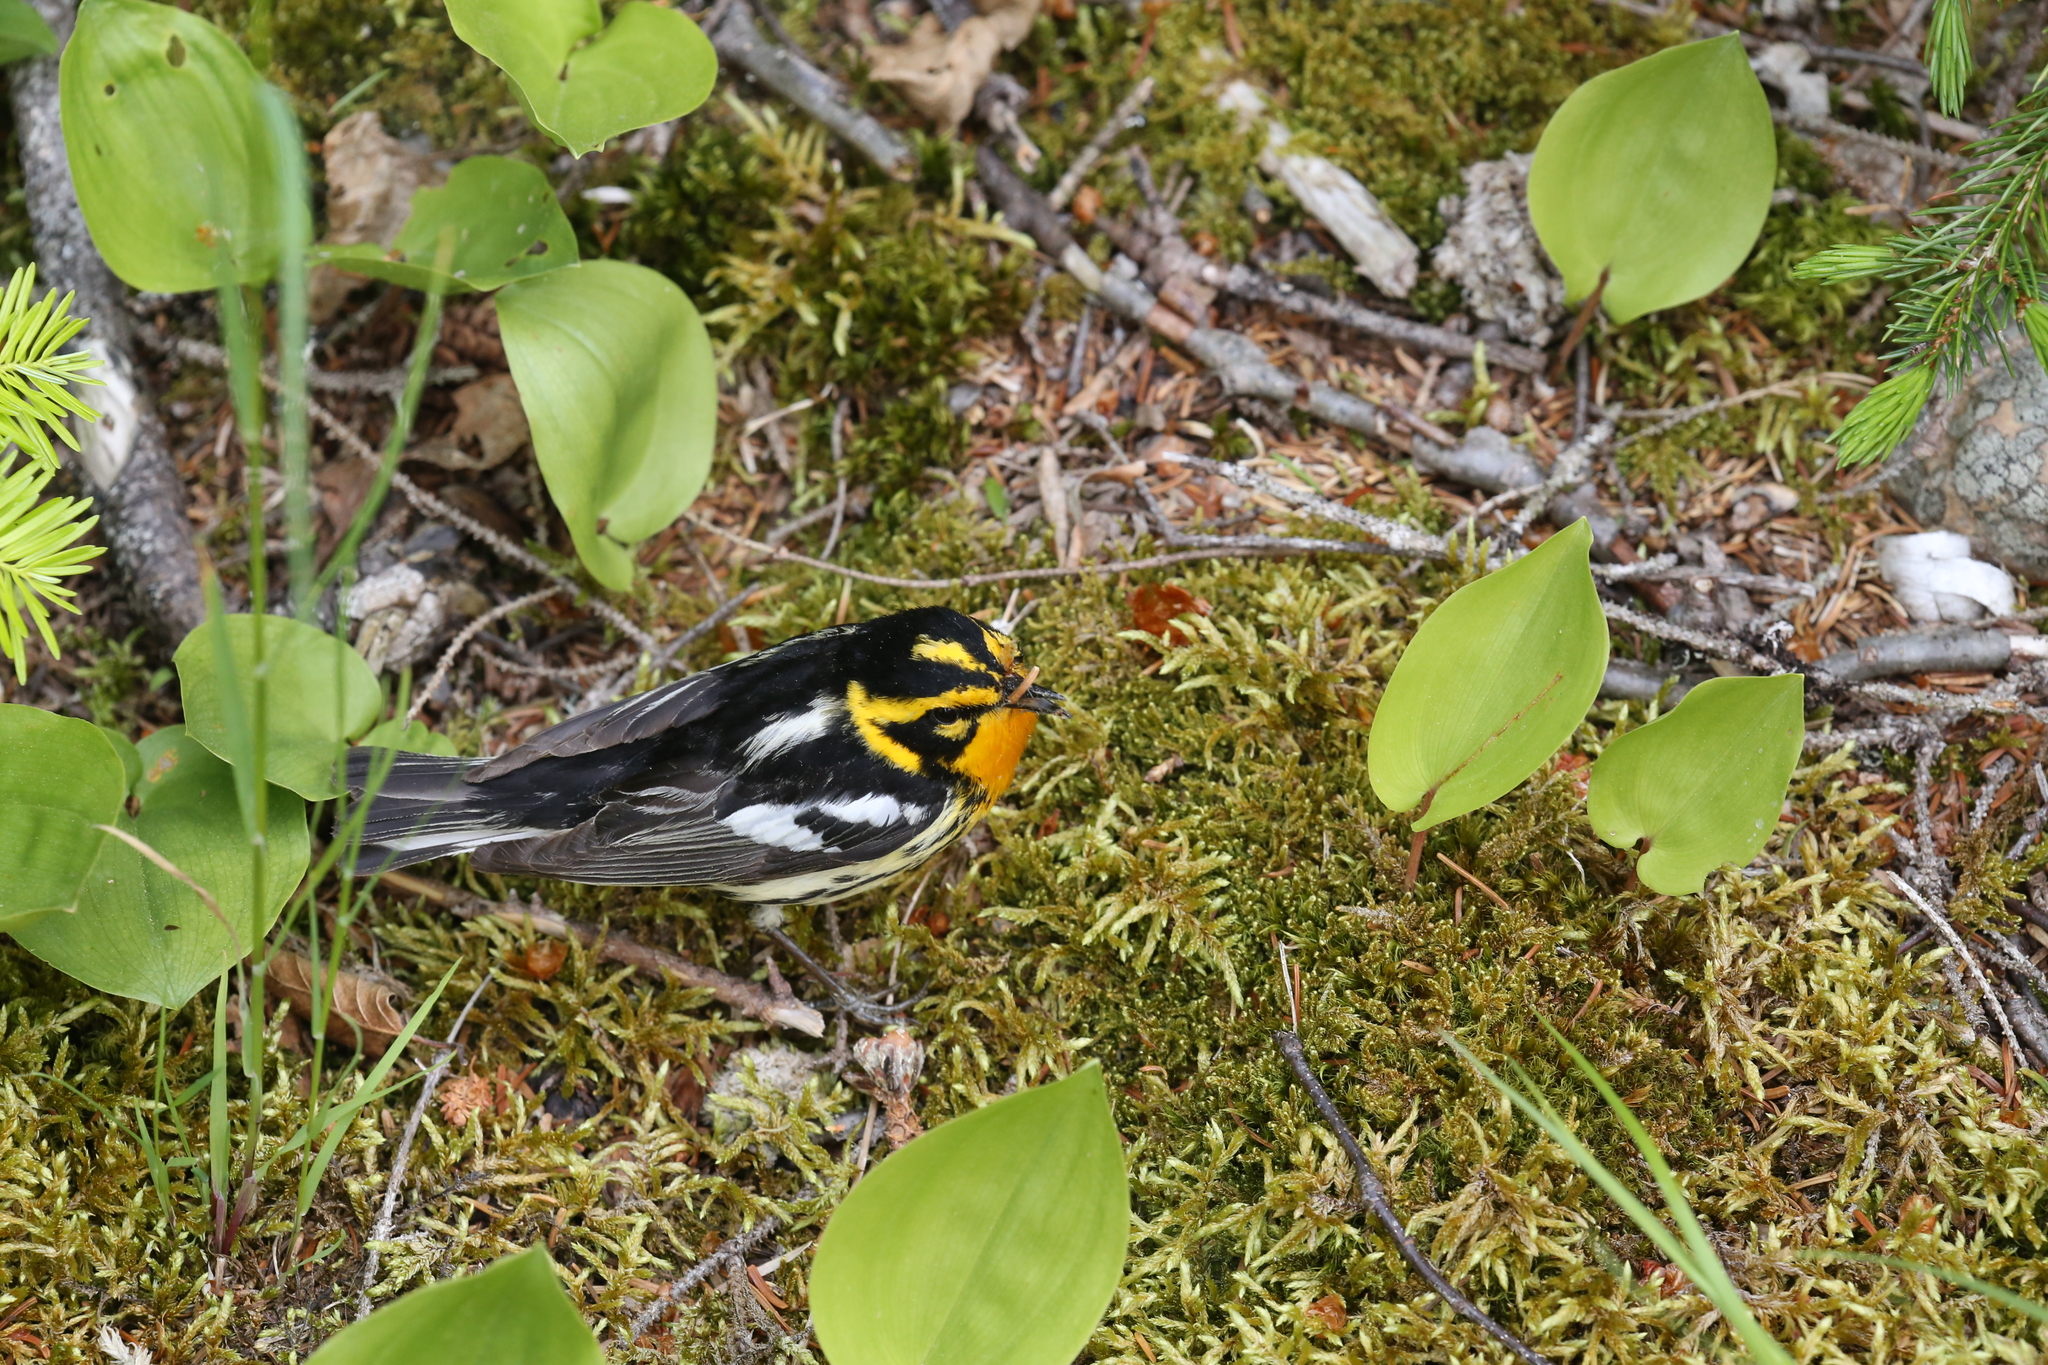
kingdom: Animalia
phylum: Chordata
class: Aves
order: Passeriformes
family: Parulidae
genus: Setophaga
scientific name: Setophaga fusca
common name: Blackburnian warbler
